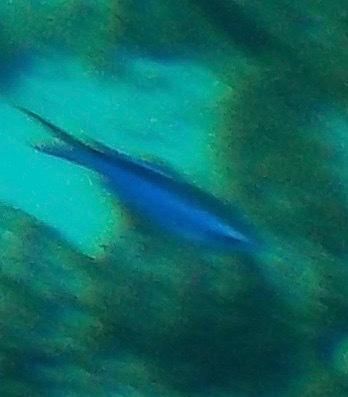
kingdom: Animalia
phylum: Chordata
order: Perciformes
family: Pomacentridae
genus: Chromis
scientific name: Chromis cyanea
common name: Blue chromis
